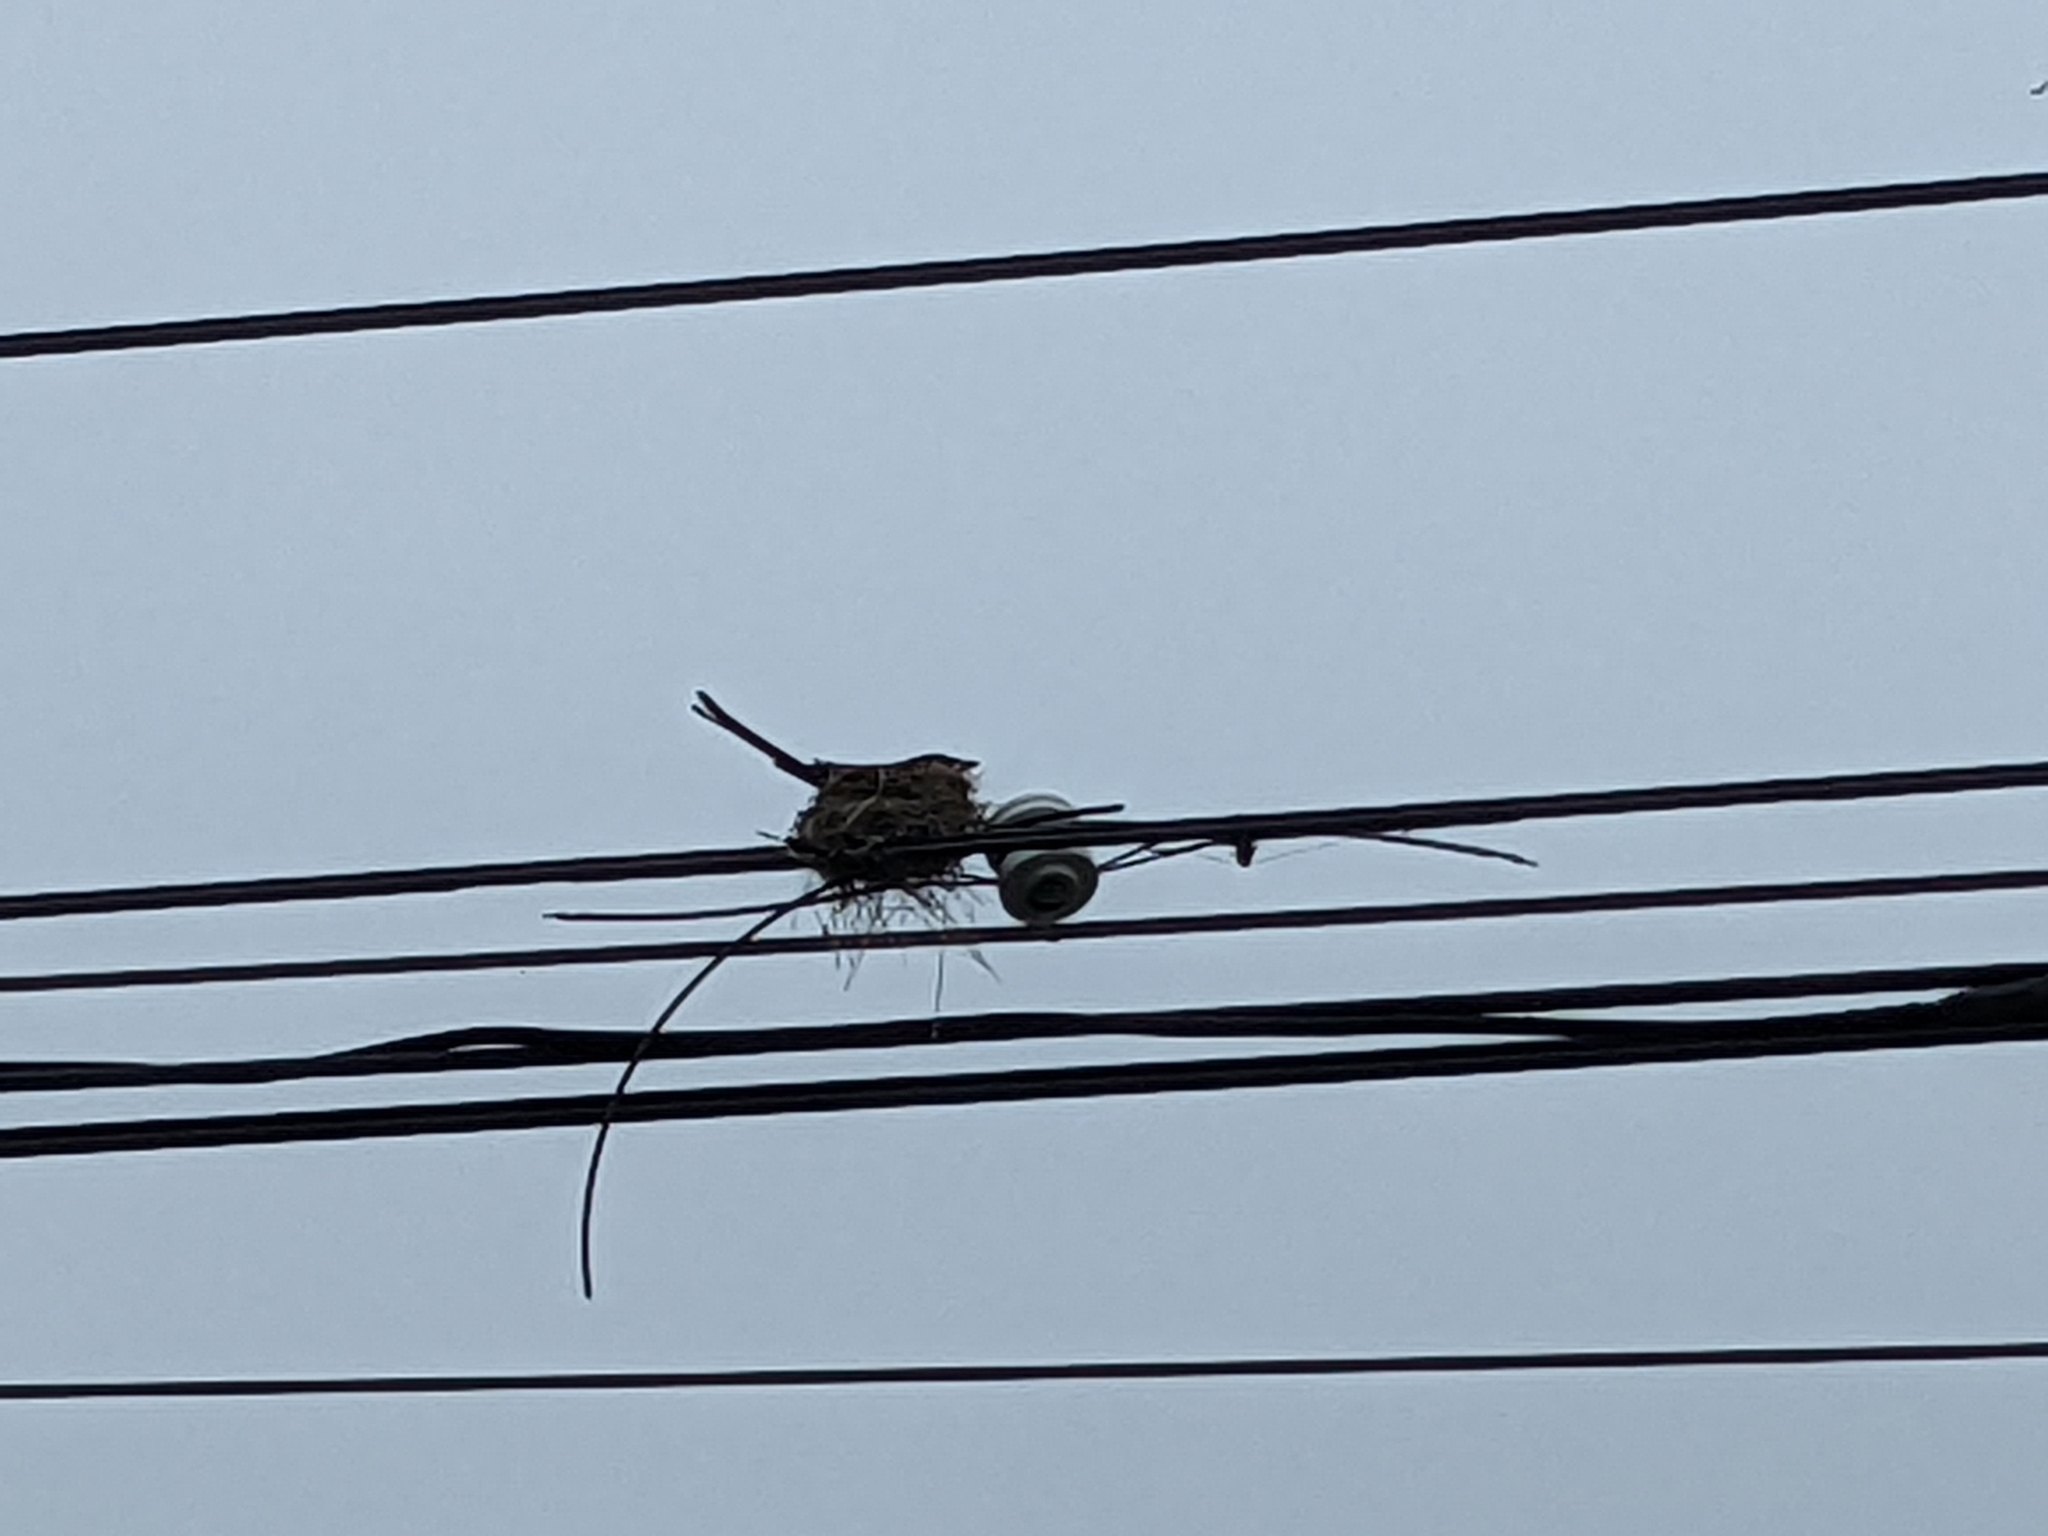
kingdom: Animalia
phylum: Chordata
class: Aves
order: Passeriformes
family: Dicruridae
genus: Dicrurus
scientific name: Dicrurus macrocercus
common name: Black drongo
